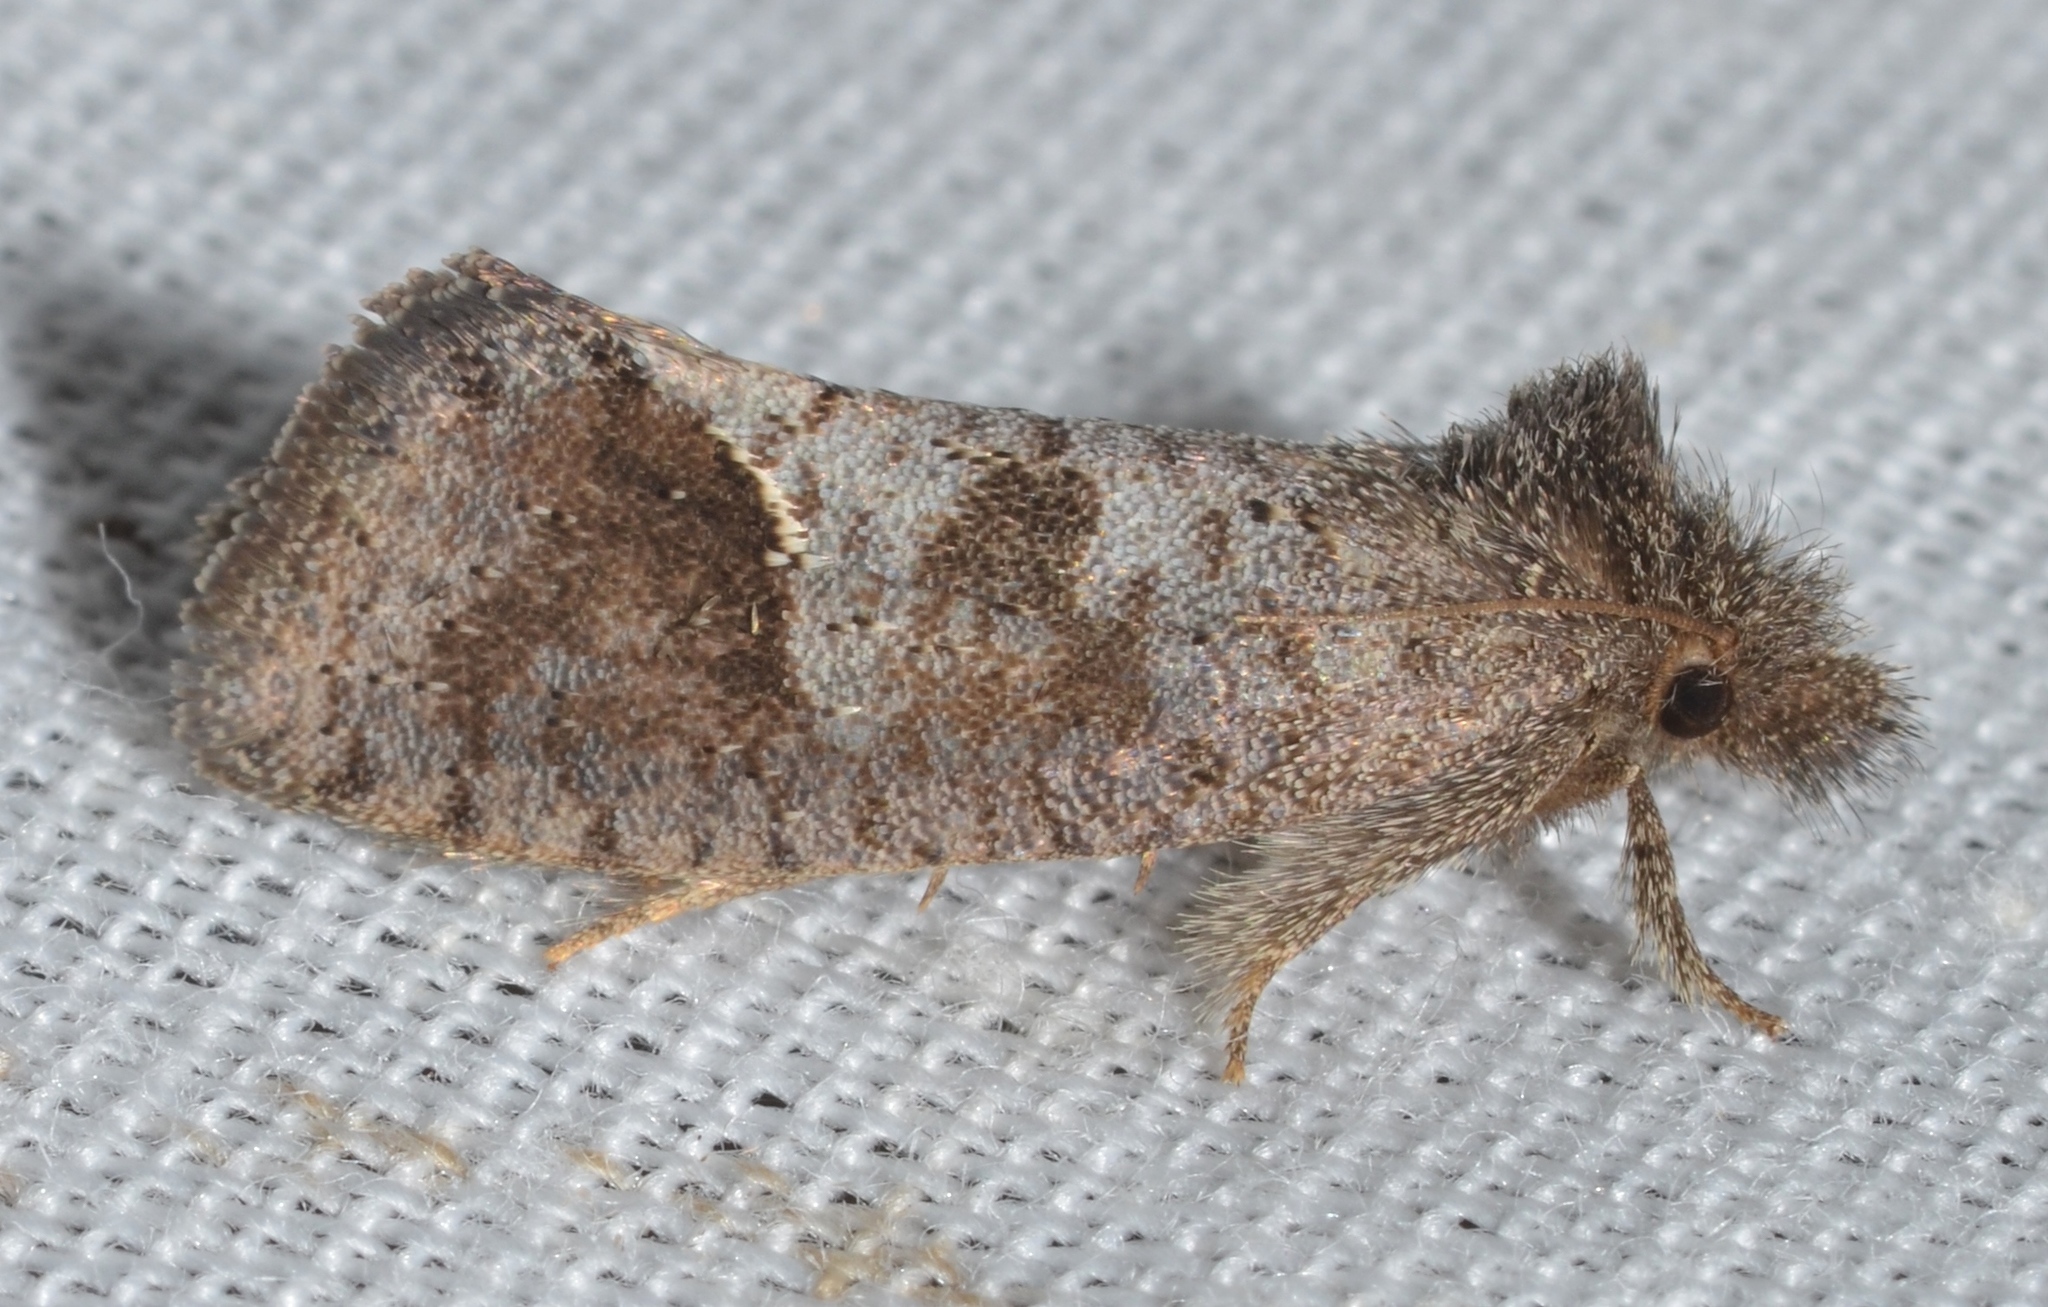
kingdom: Animalia
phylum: Arthropoda
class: Insecta
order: Lepidoptera
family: Tineidae
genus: Acrolophus
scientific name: Acrolophus texanella
